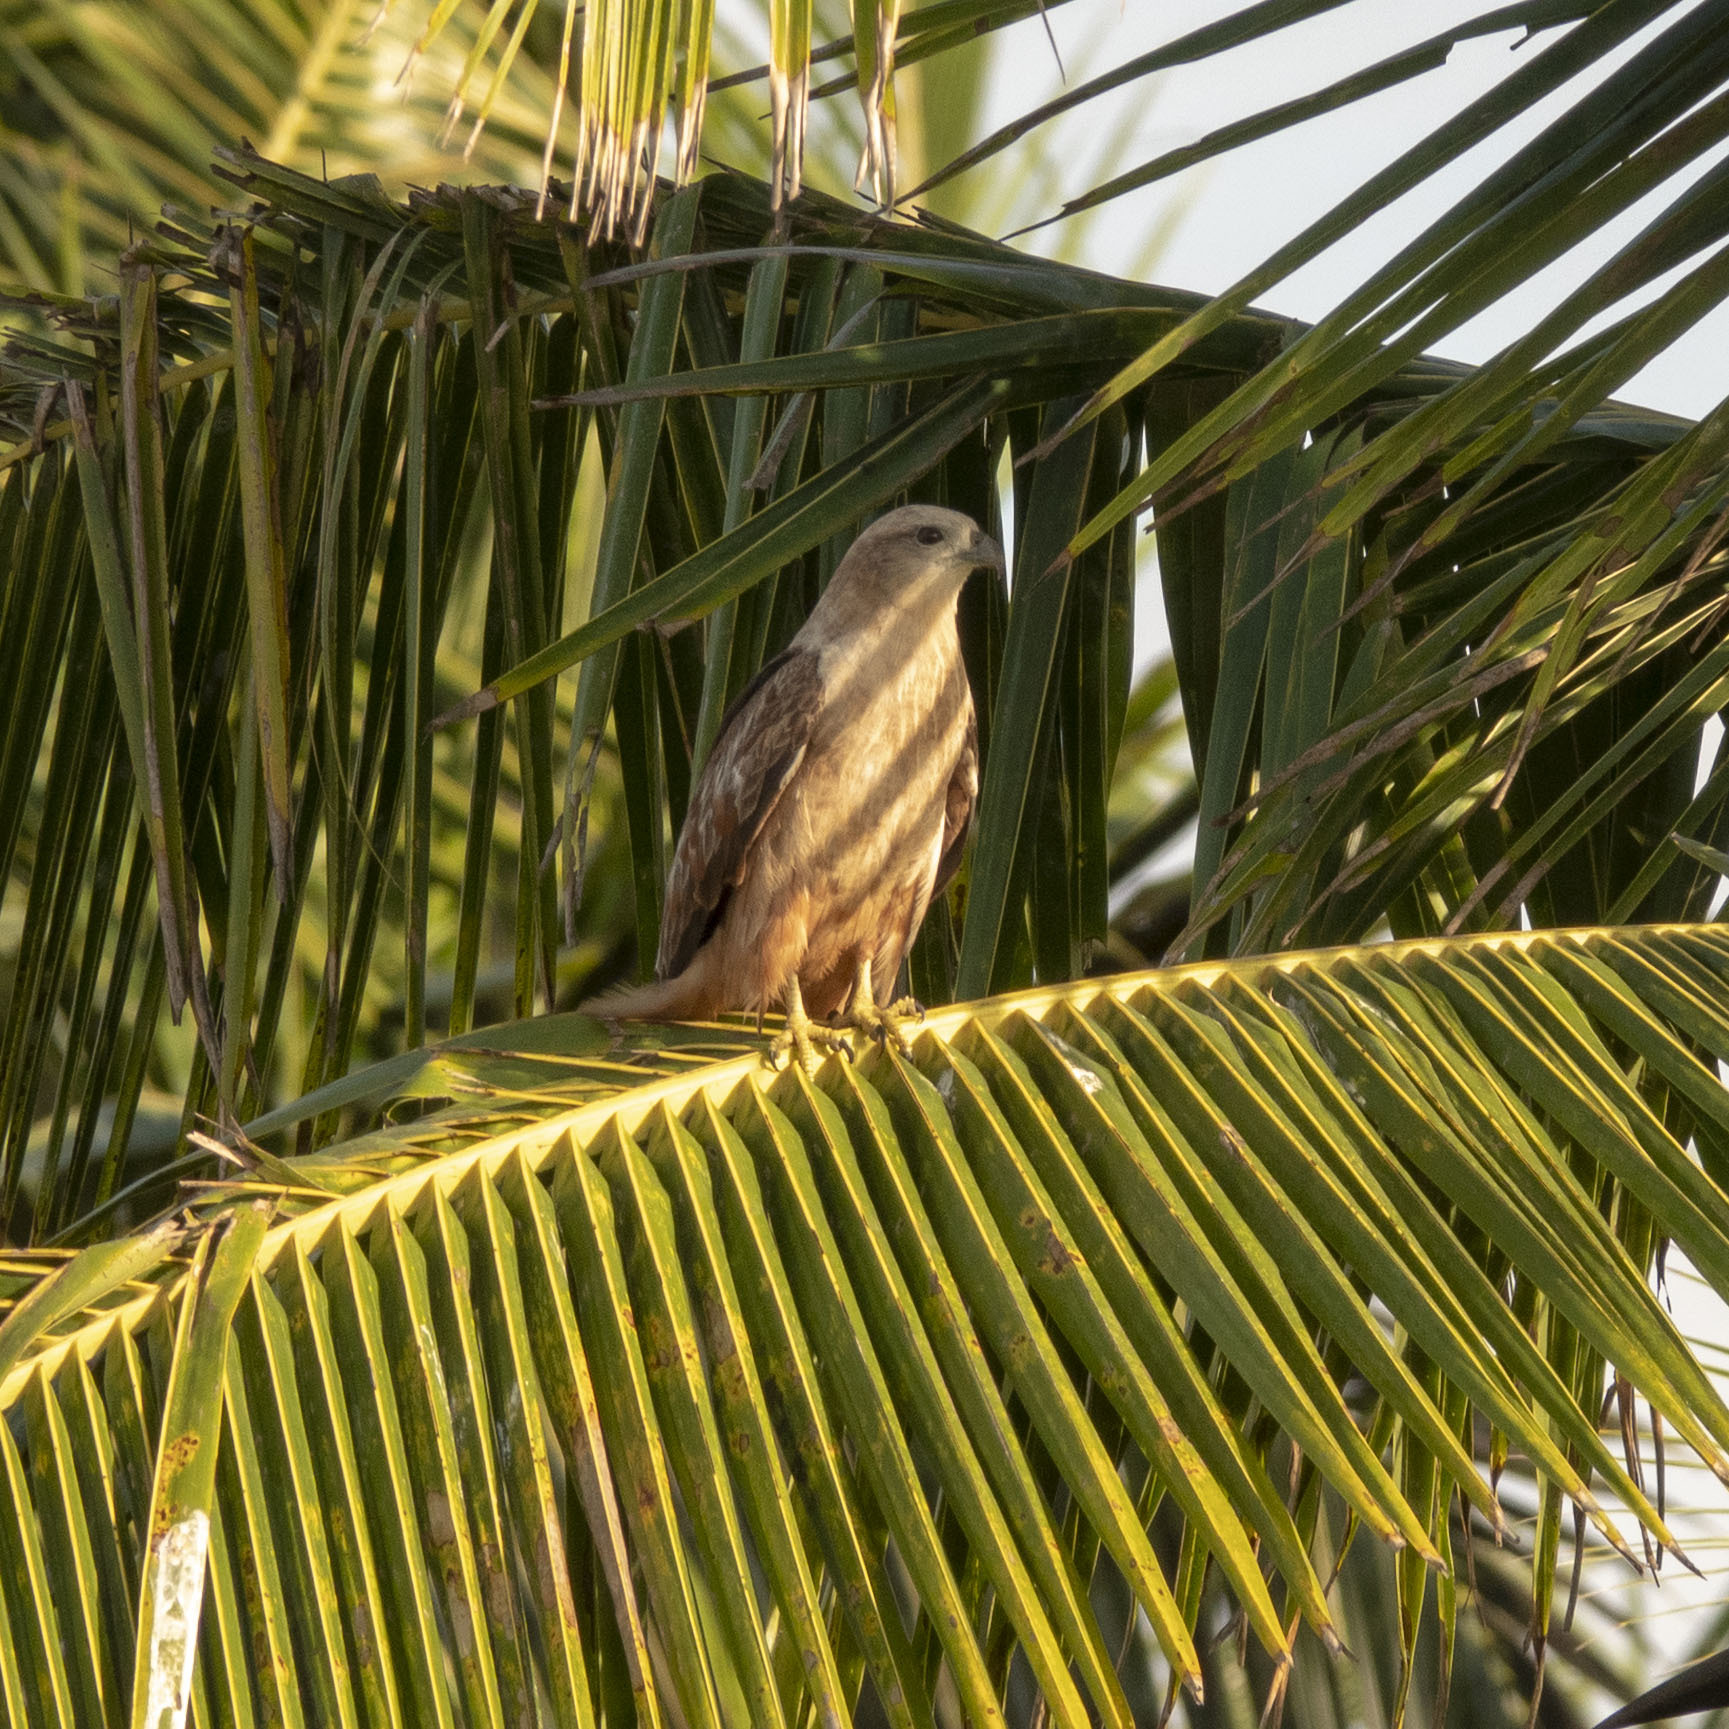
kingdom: Animalia
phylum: Chordata
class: Aves
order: Accipitriformes
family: Accipitridae
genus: Haliastur
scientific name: Haliastur indus
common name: Brahminy kite
